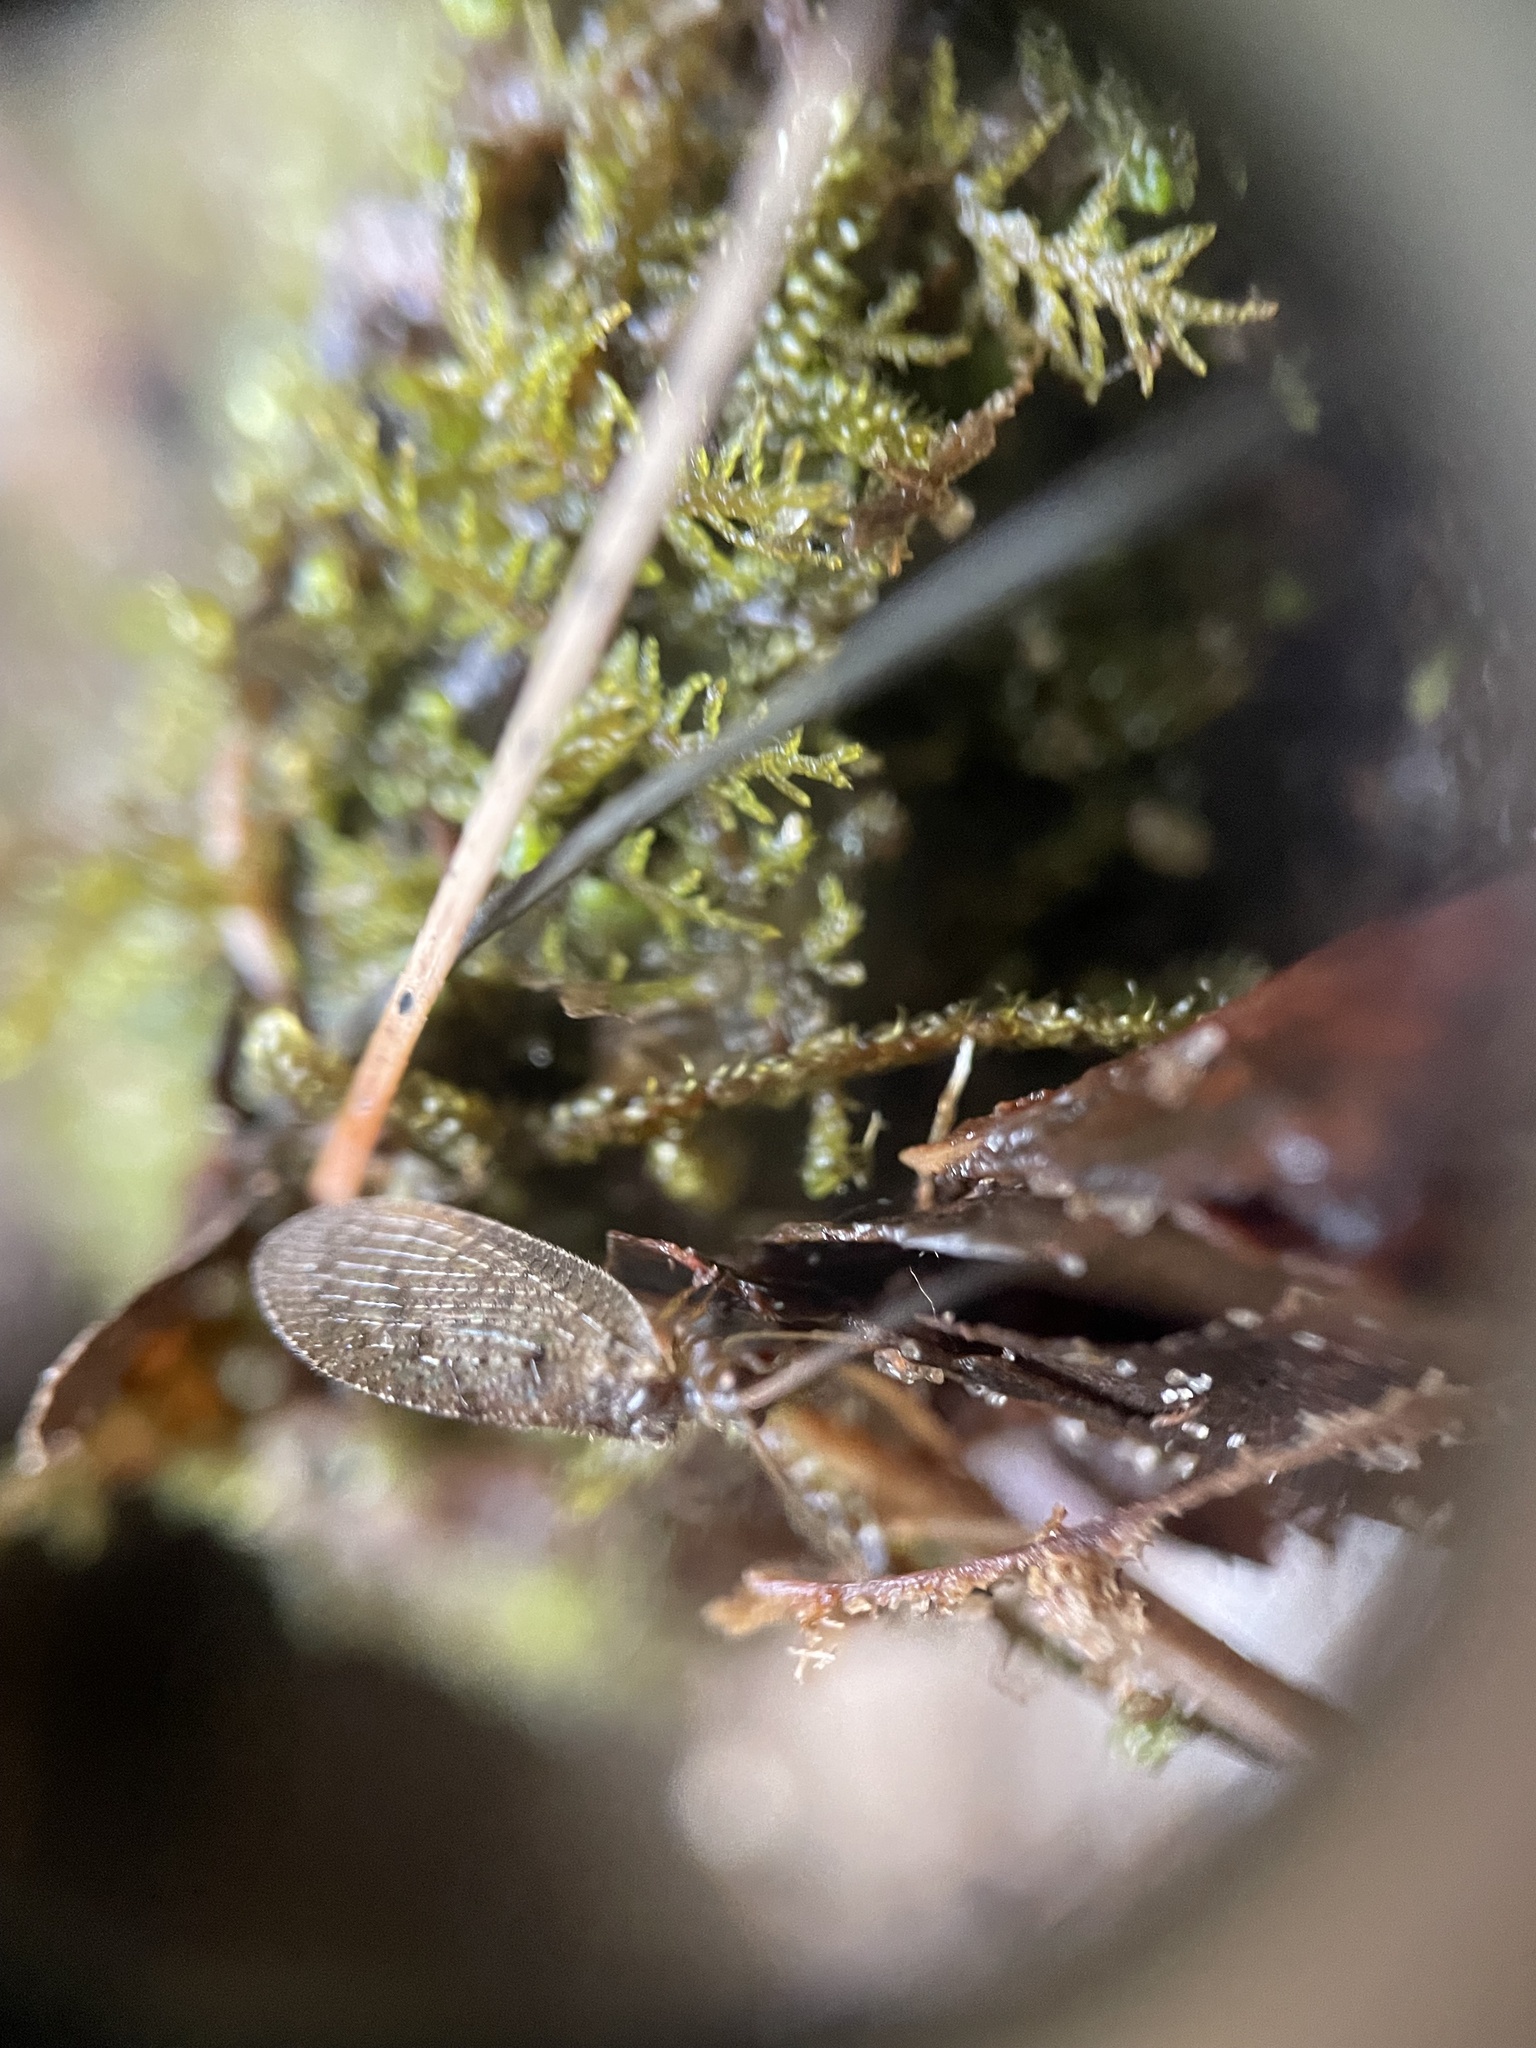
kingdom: Animalia
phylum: Arthropoda
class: Insecta
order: Neuroptera
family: Hemerobiidae
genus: Hemerobius
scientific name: Hemerobius stigma
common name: Brown pine lacewing
